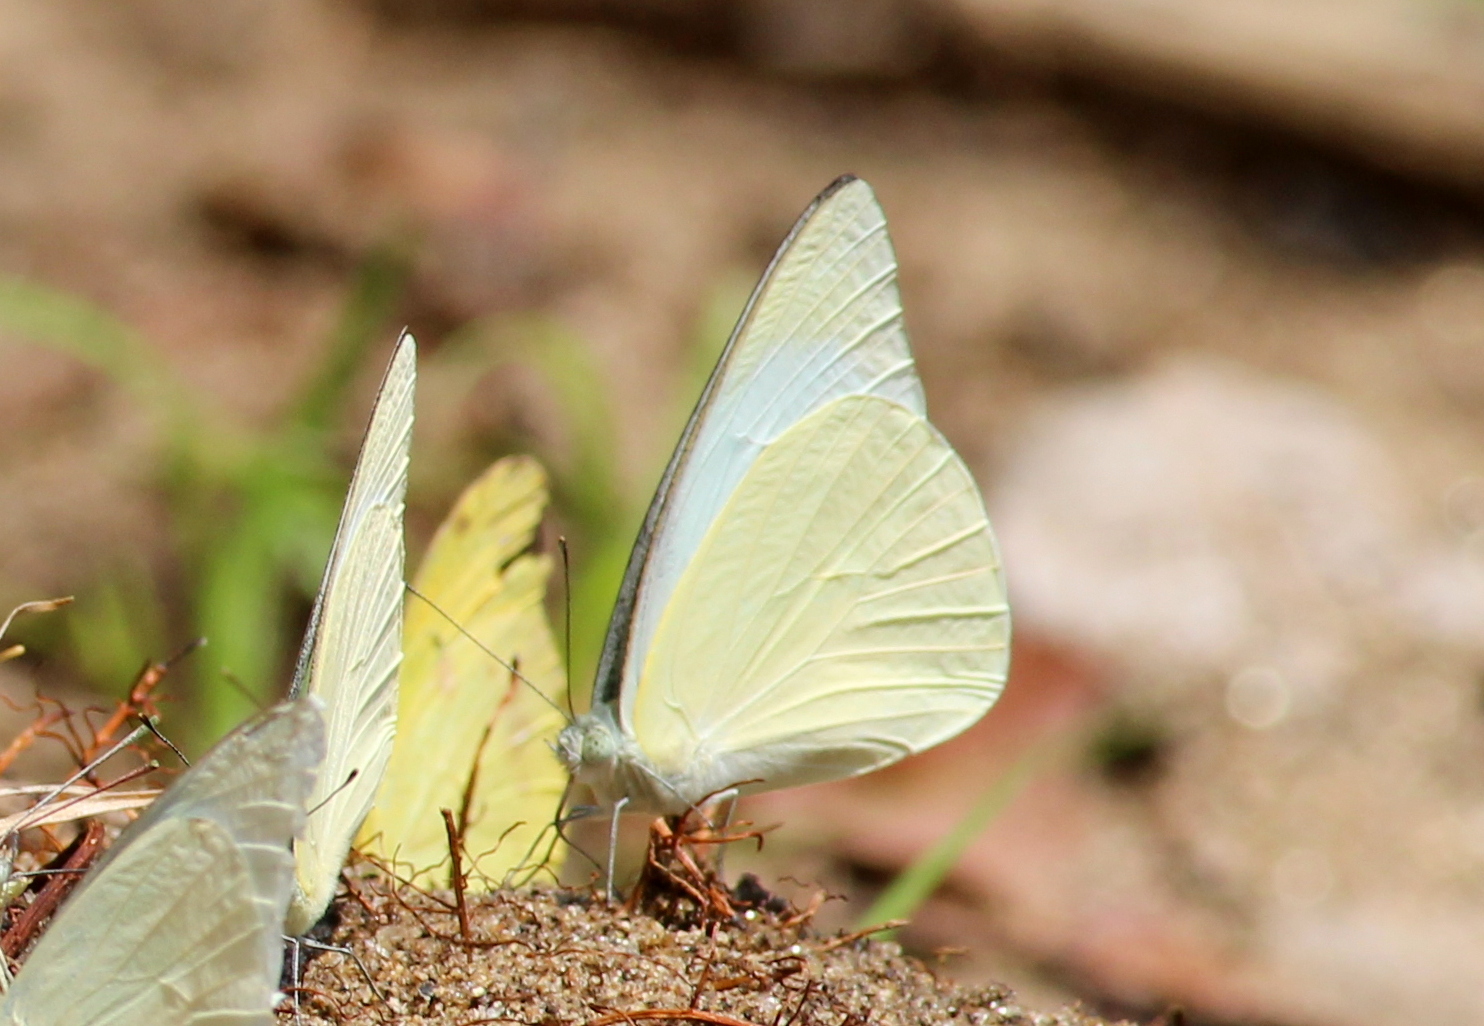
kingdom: Animalia
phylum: Arthropoda
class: Insecta
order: Lepidoptera
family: Pieridae
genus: Appias
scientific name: Appias albina
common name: Common albatross
